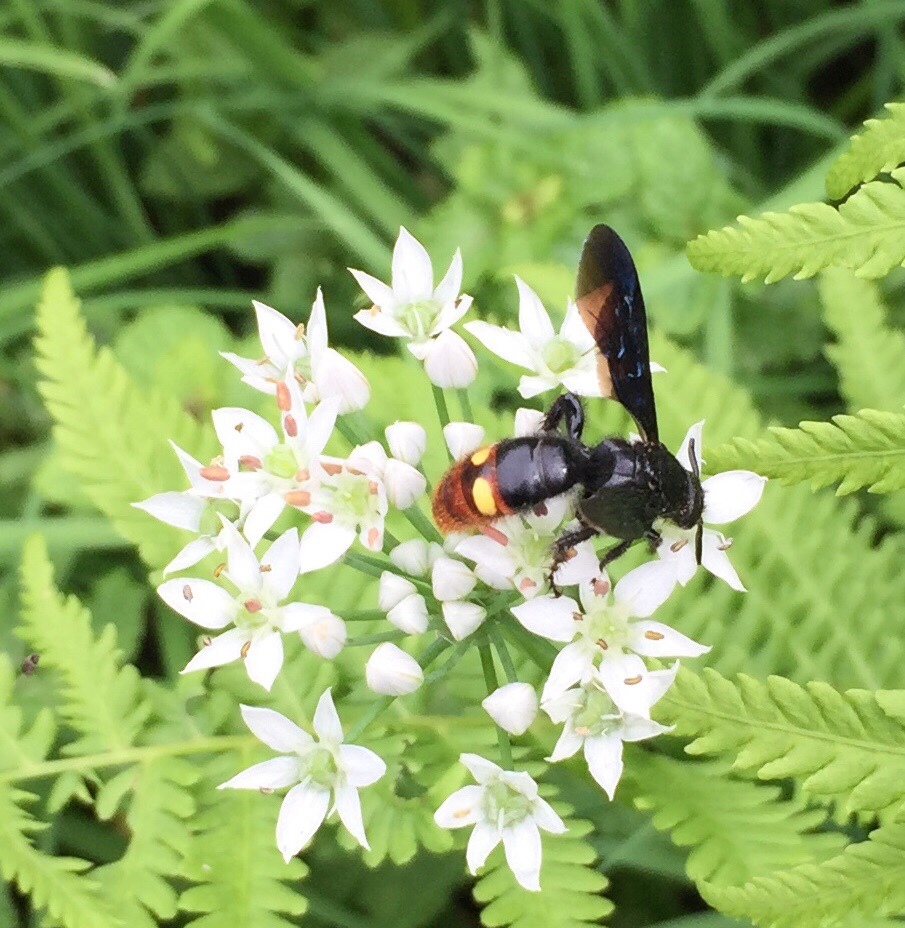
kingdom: Animalia
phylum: Arthropoda
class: Insecta
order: Hymenoptera
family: Scoliidae
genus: Scolia
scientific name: Scolia dubia
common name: Blue-winged scoliid wasp
